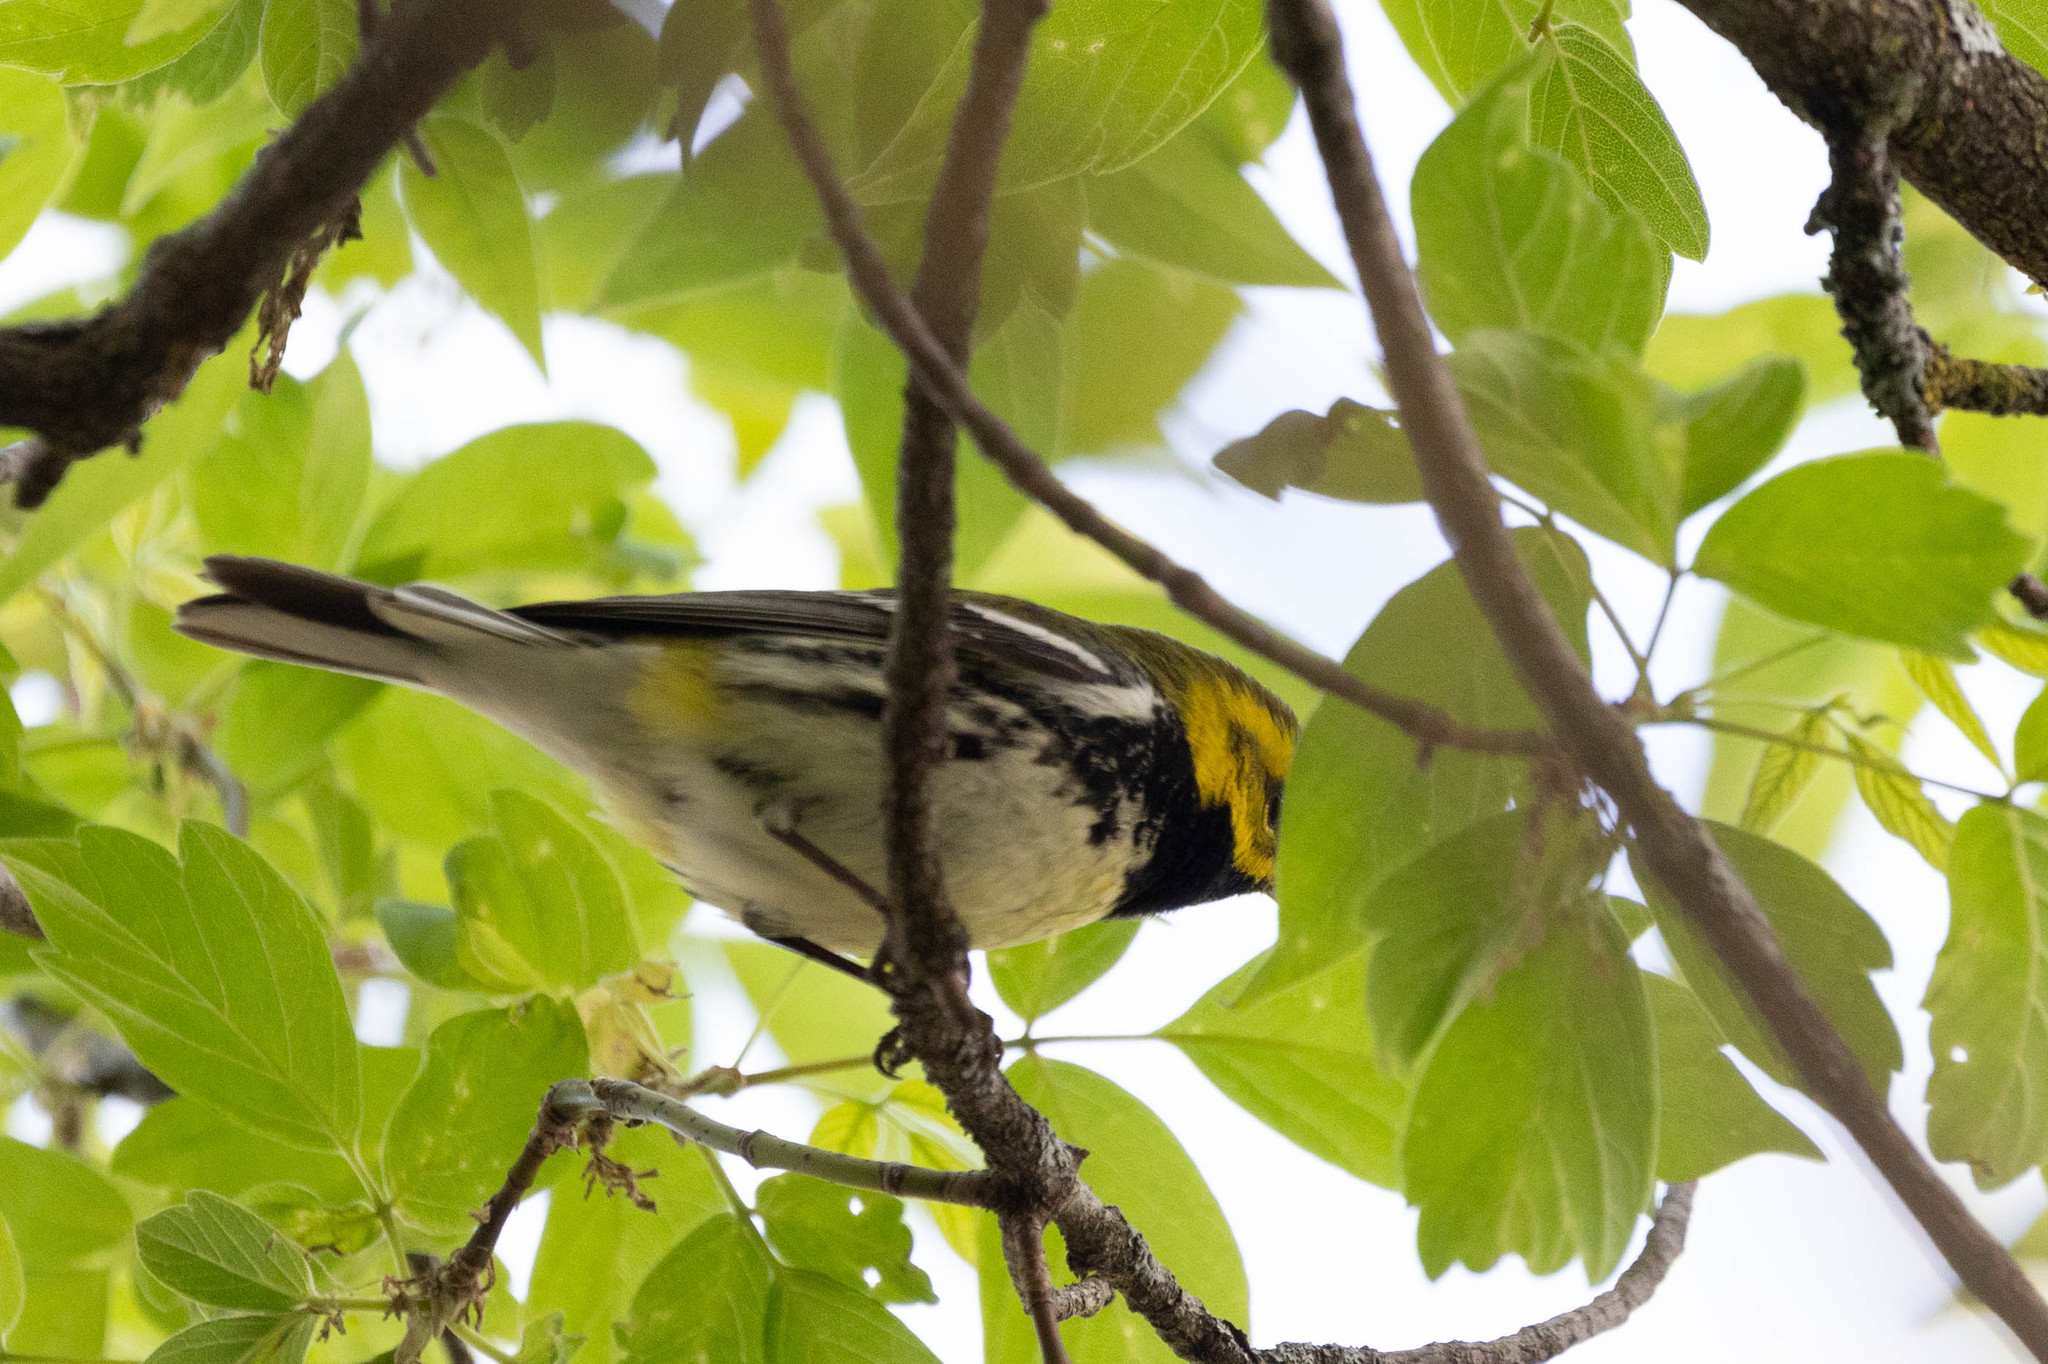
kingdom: Animalia
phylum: Chordata
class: Aves
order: Passeriformes
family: Parulidae
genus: Setophaga
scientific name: Setophaga virens
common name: Black-throated green warbler
